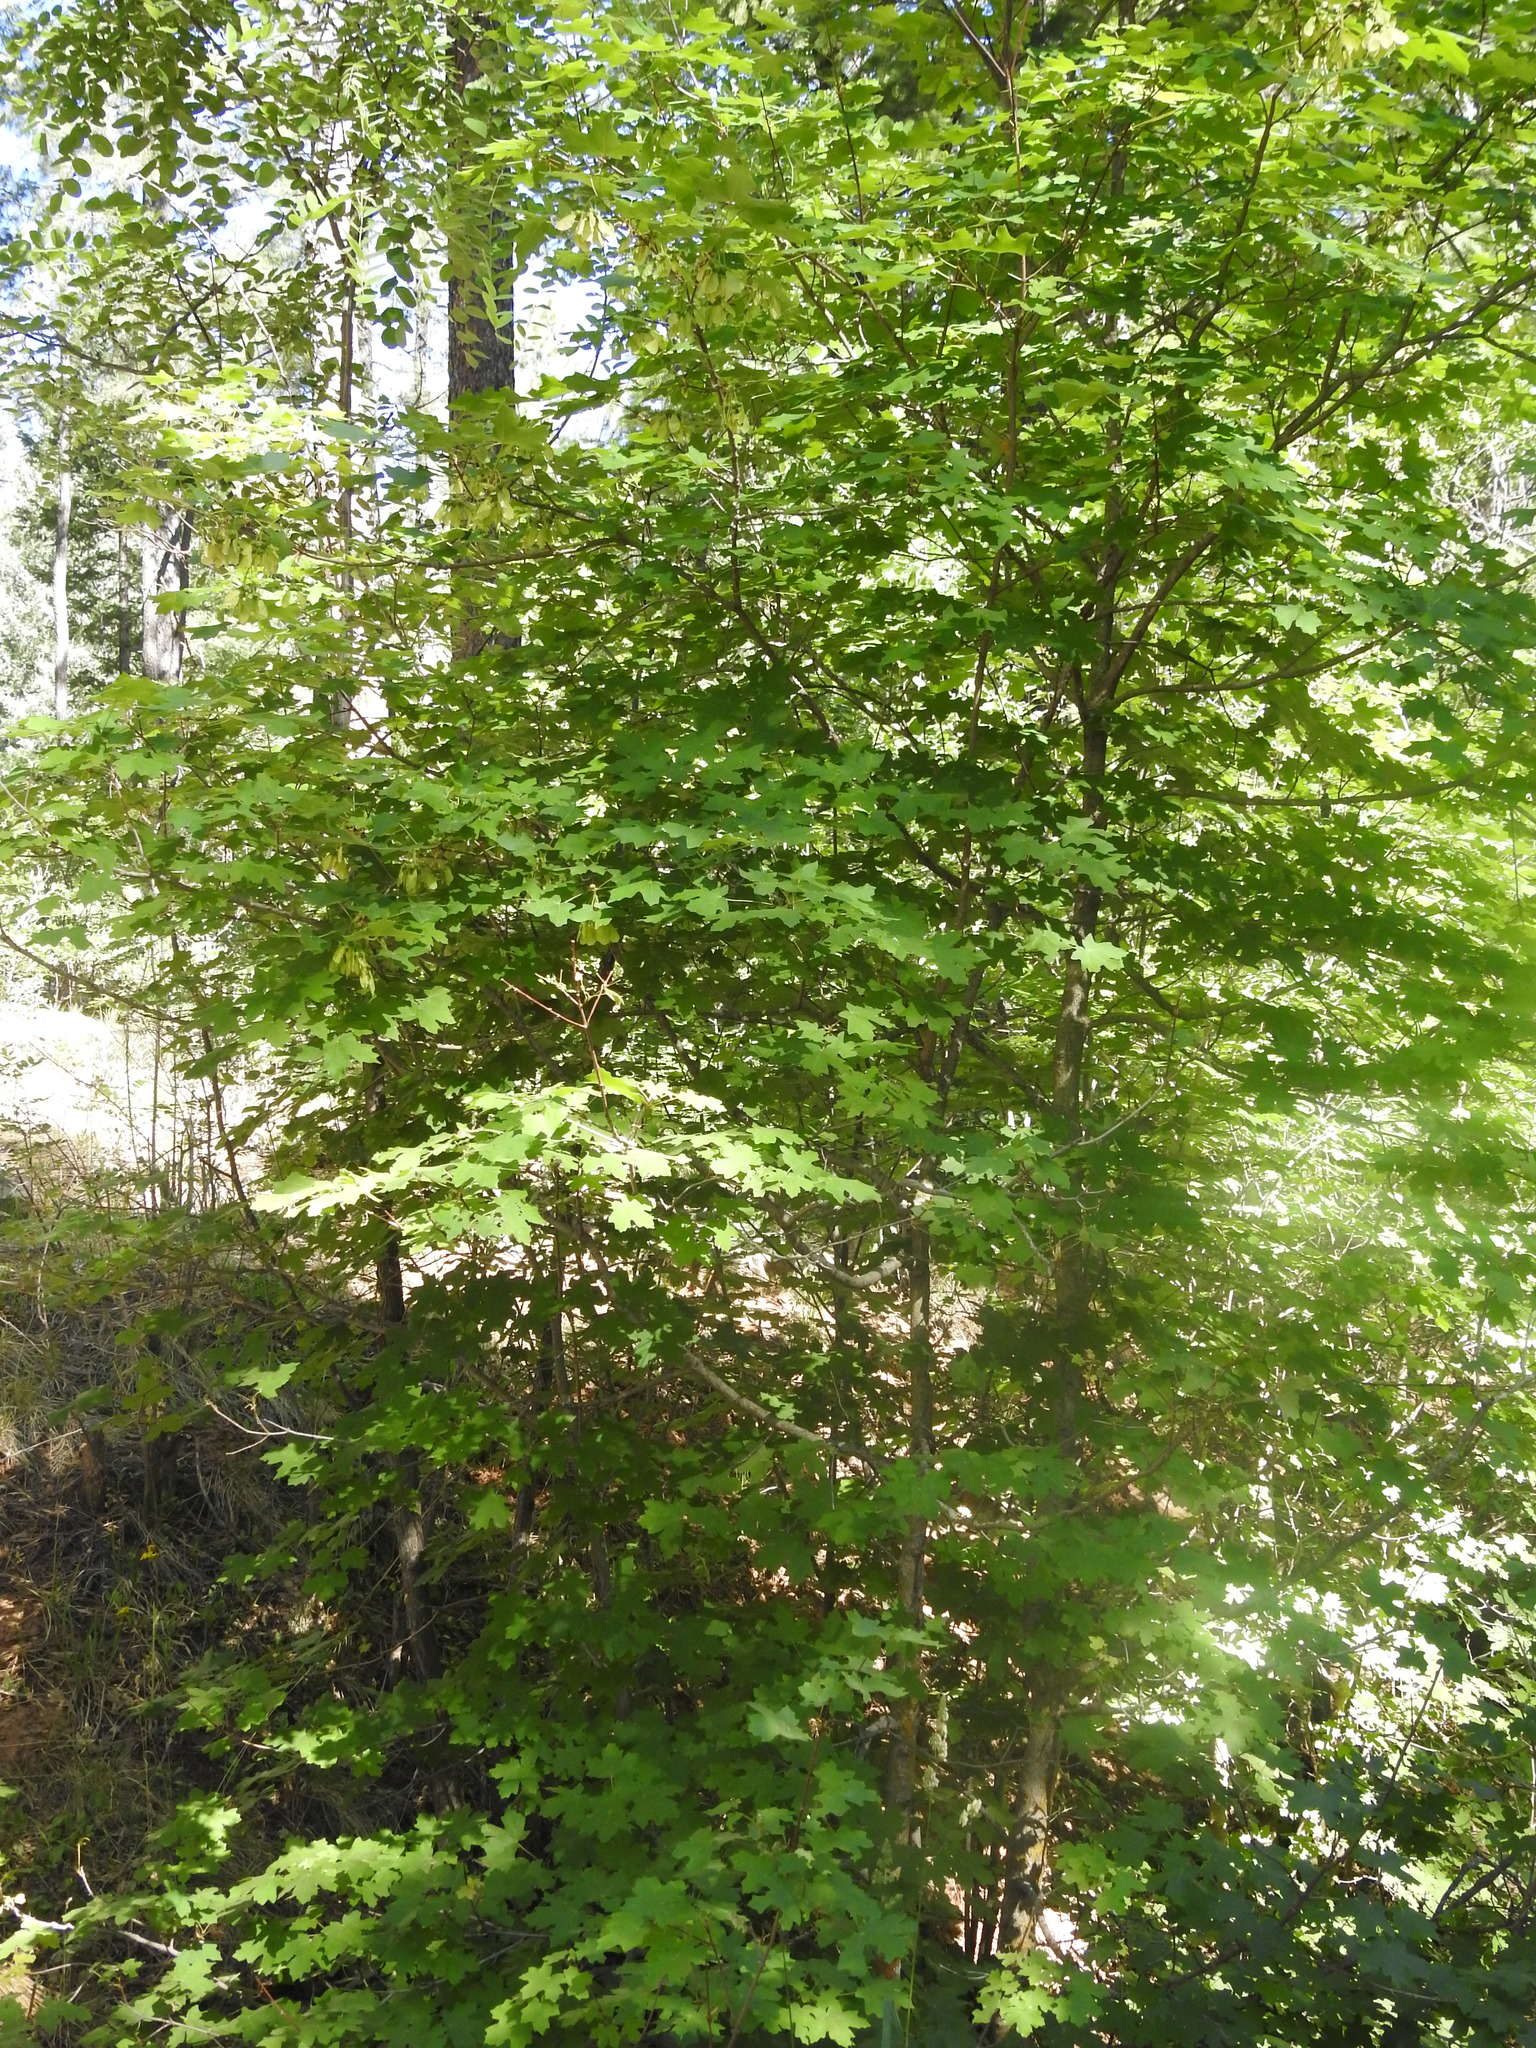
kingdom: Plantae
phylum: Tracheophyta
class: Magnoliopsida
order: Sapindales
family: Sapindaceae
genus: Acer
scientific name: Acer grandidentatum
